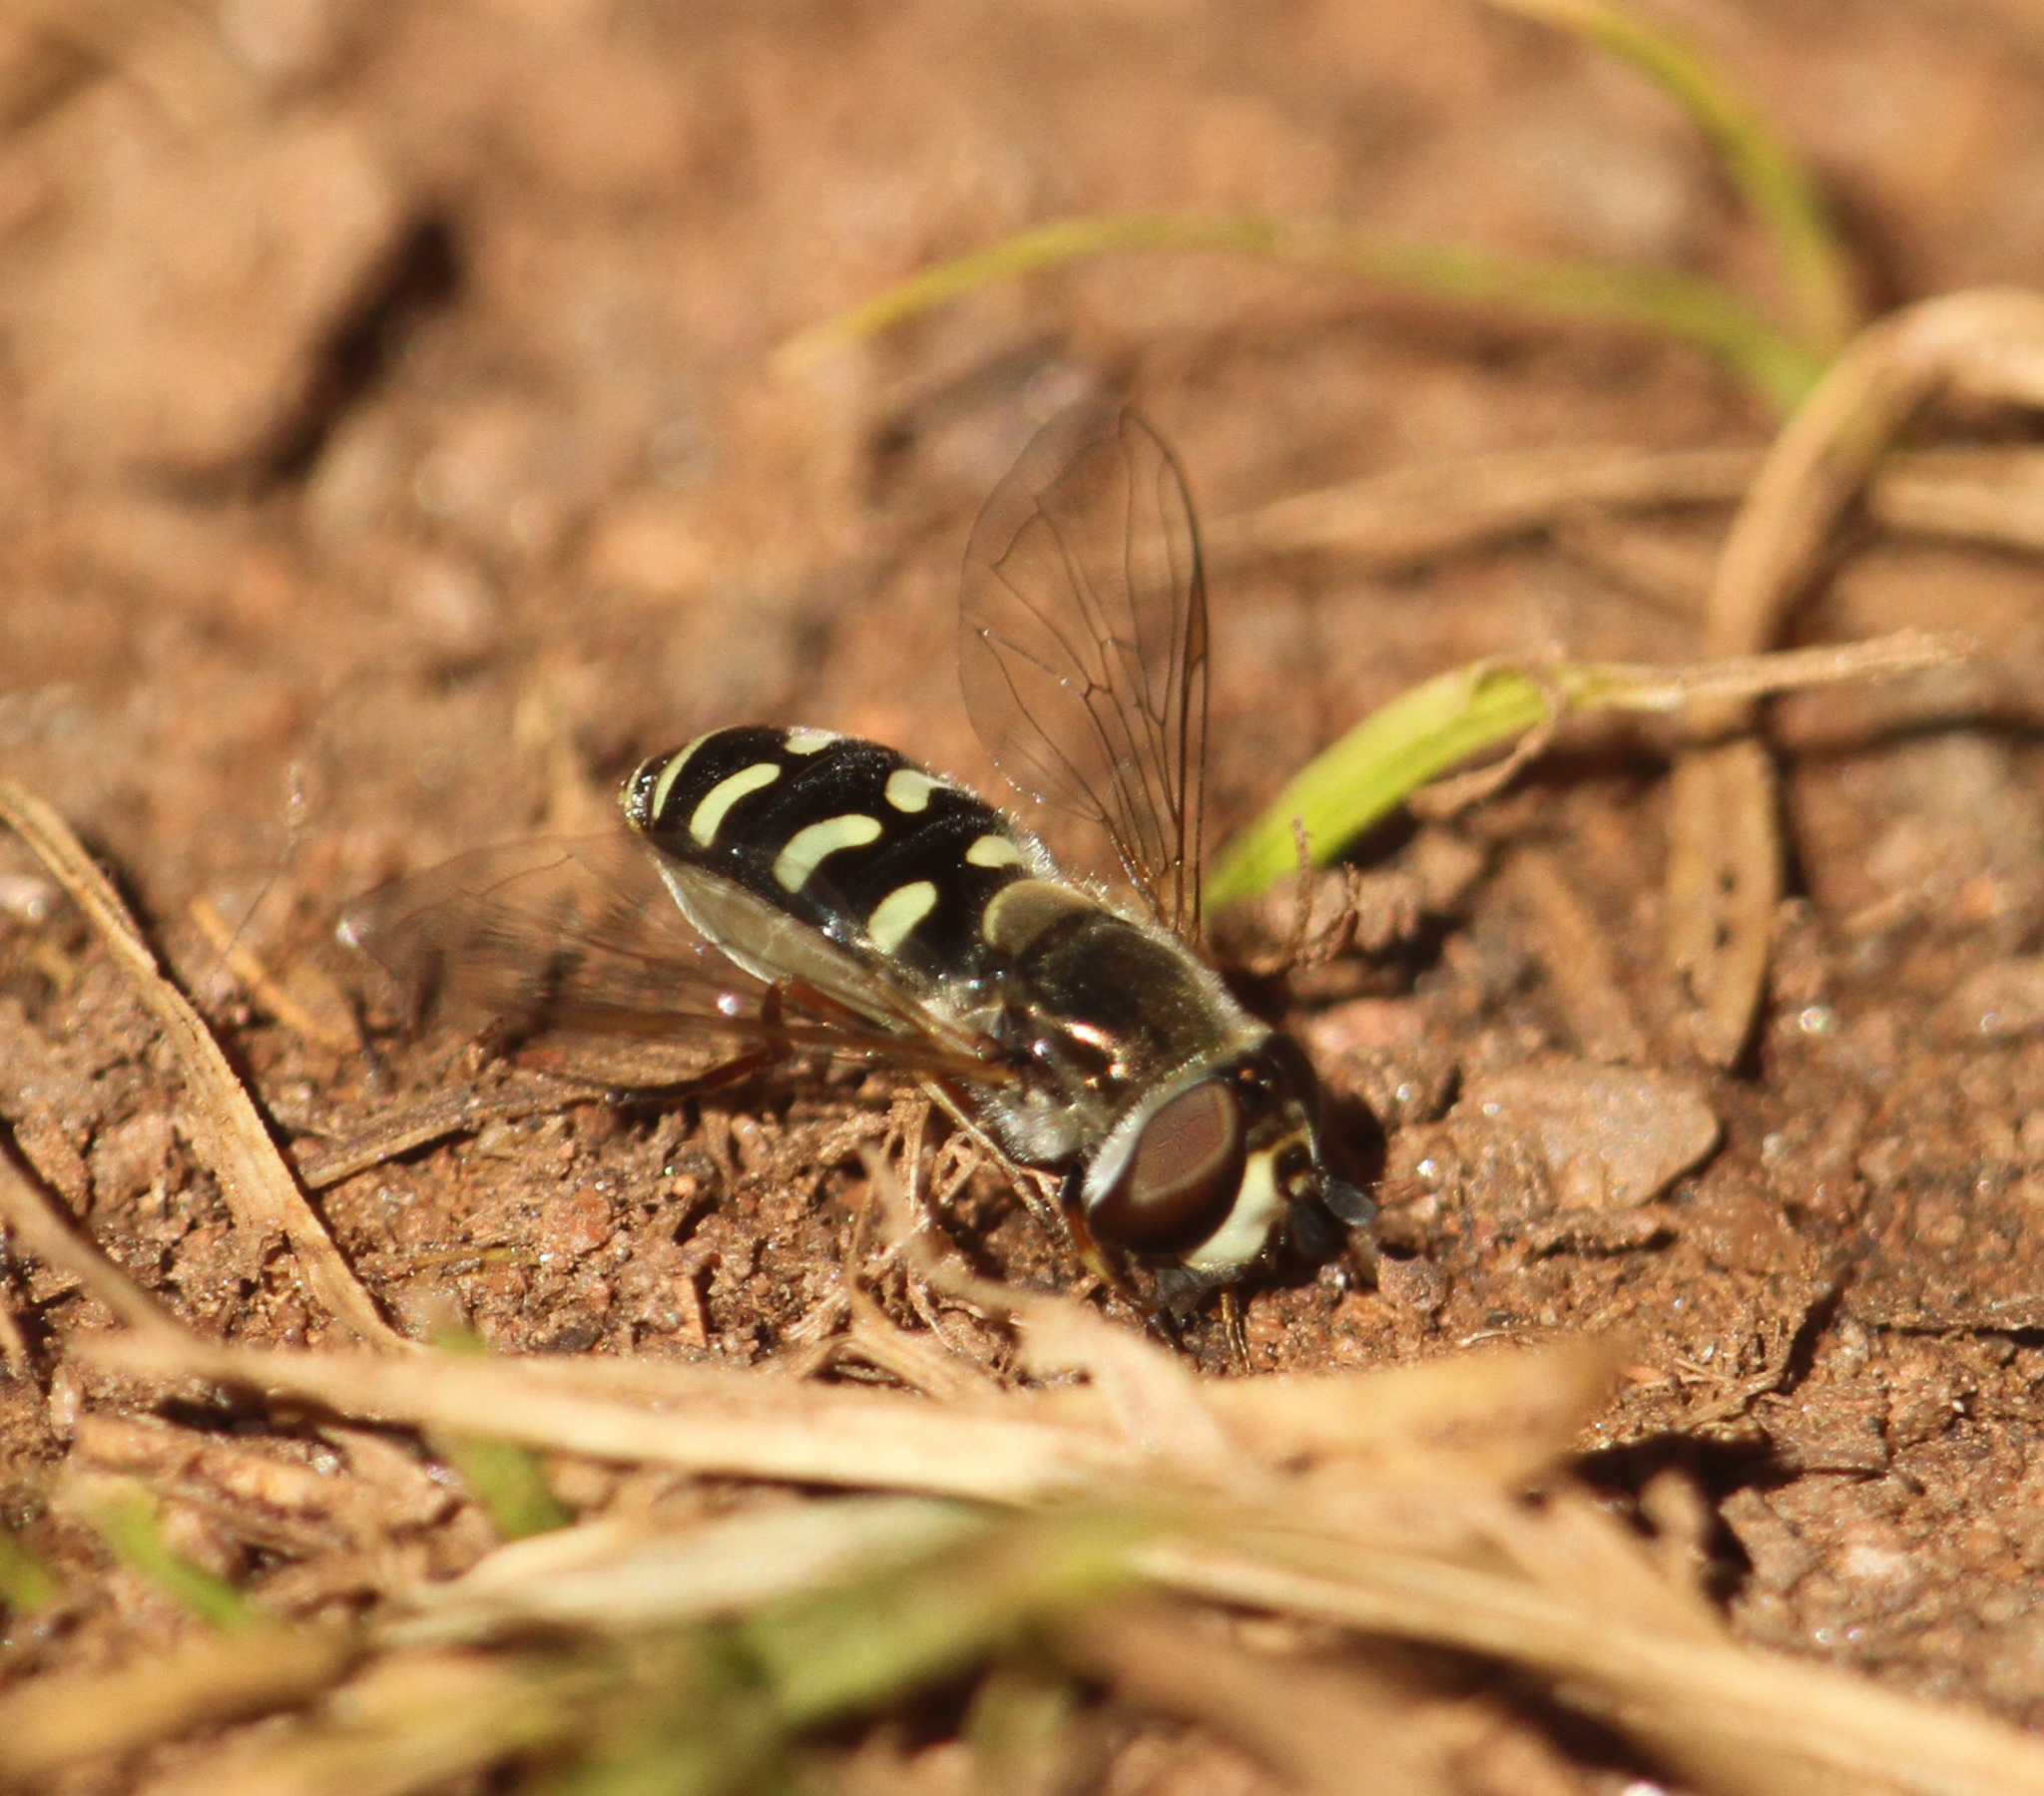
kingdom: Animalia
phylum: Arthropoda
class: Insecta
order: Diptera
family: Syrphidae
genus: Eupeodes
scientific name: Eupeodes volucris
